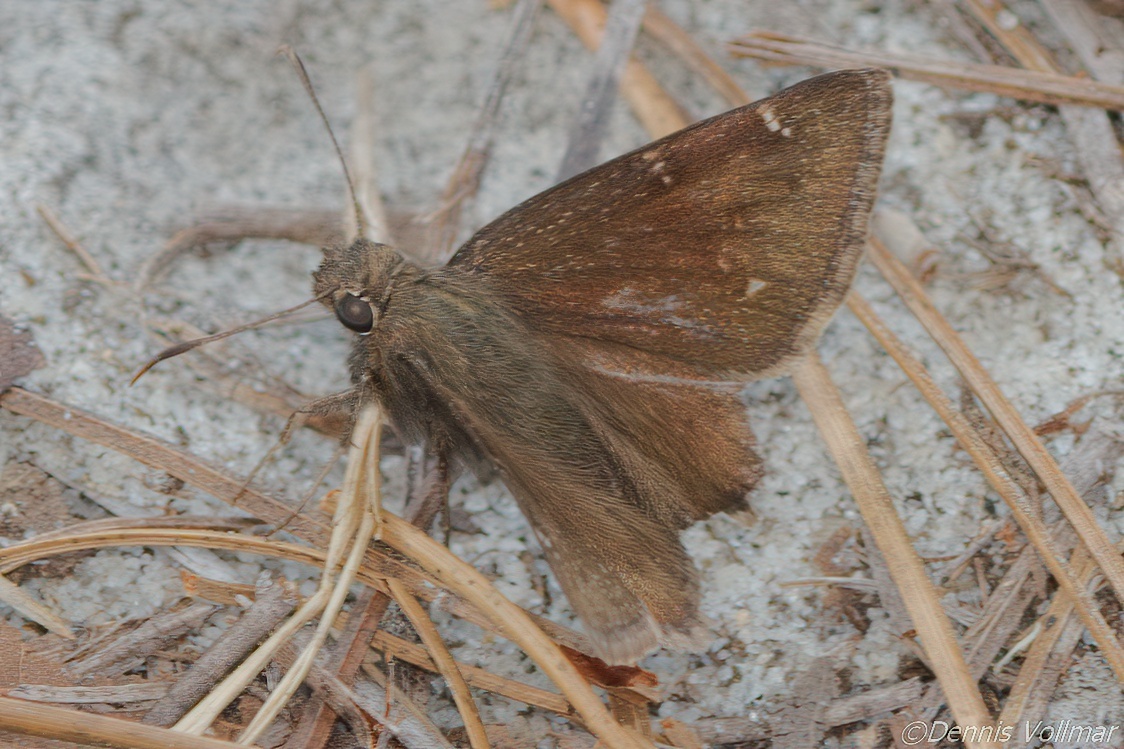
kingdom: Animalia
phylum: Arthropoda
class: Insecta
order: Lepidoptera
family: Hesperiidae
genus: Thorybes
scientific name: Thorybes pylades
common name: Northern cloudywing
